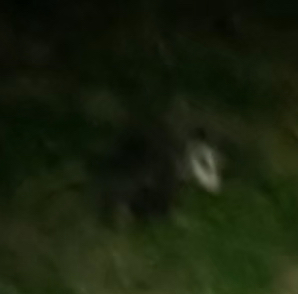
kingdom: Animalia
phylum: Chordata
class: Mammalia
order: Didelphimorphia
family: Didelphidae
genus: Didelphis
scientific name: Didelphis virginiana
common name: Virginia opossum
